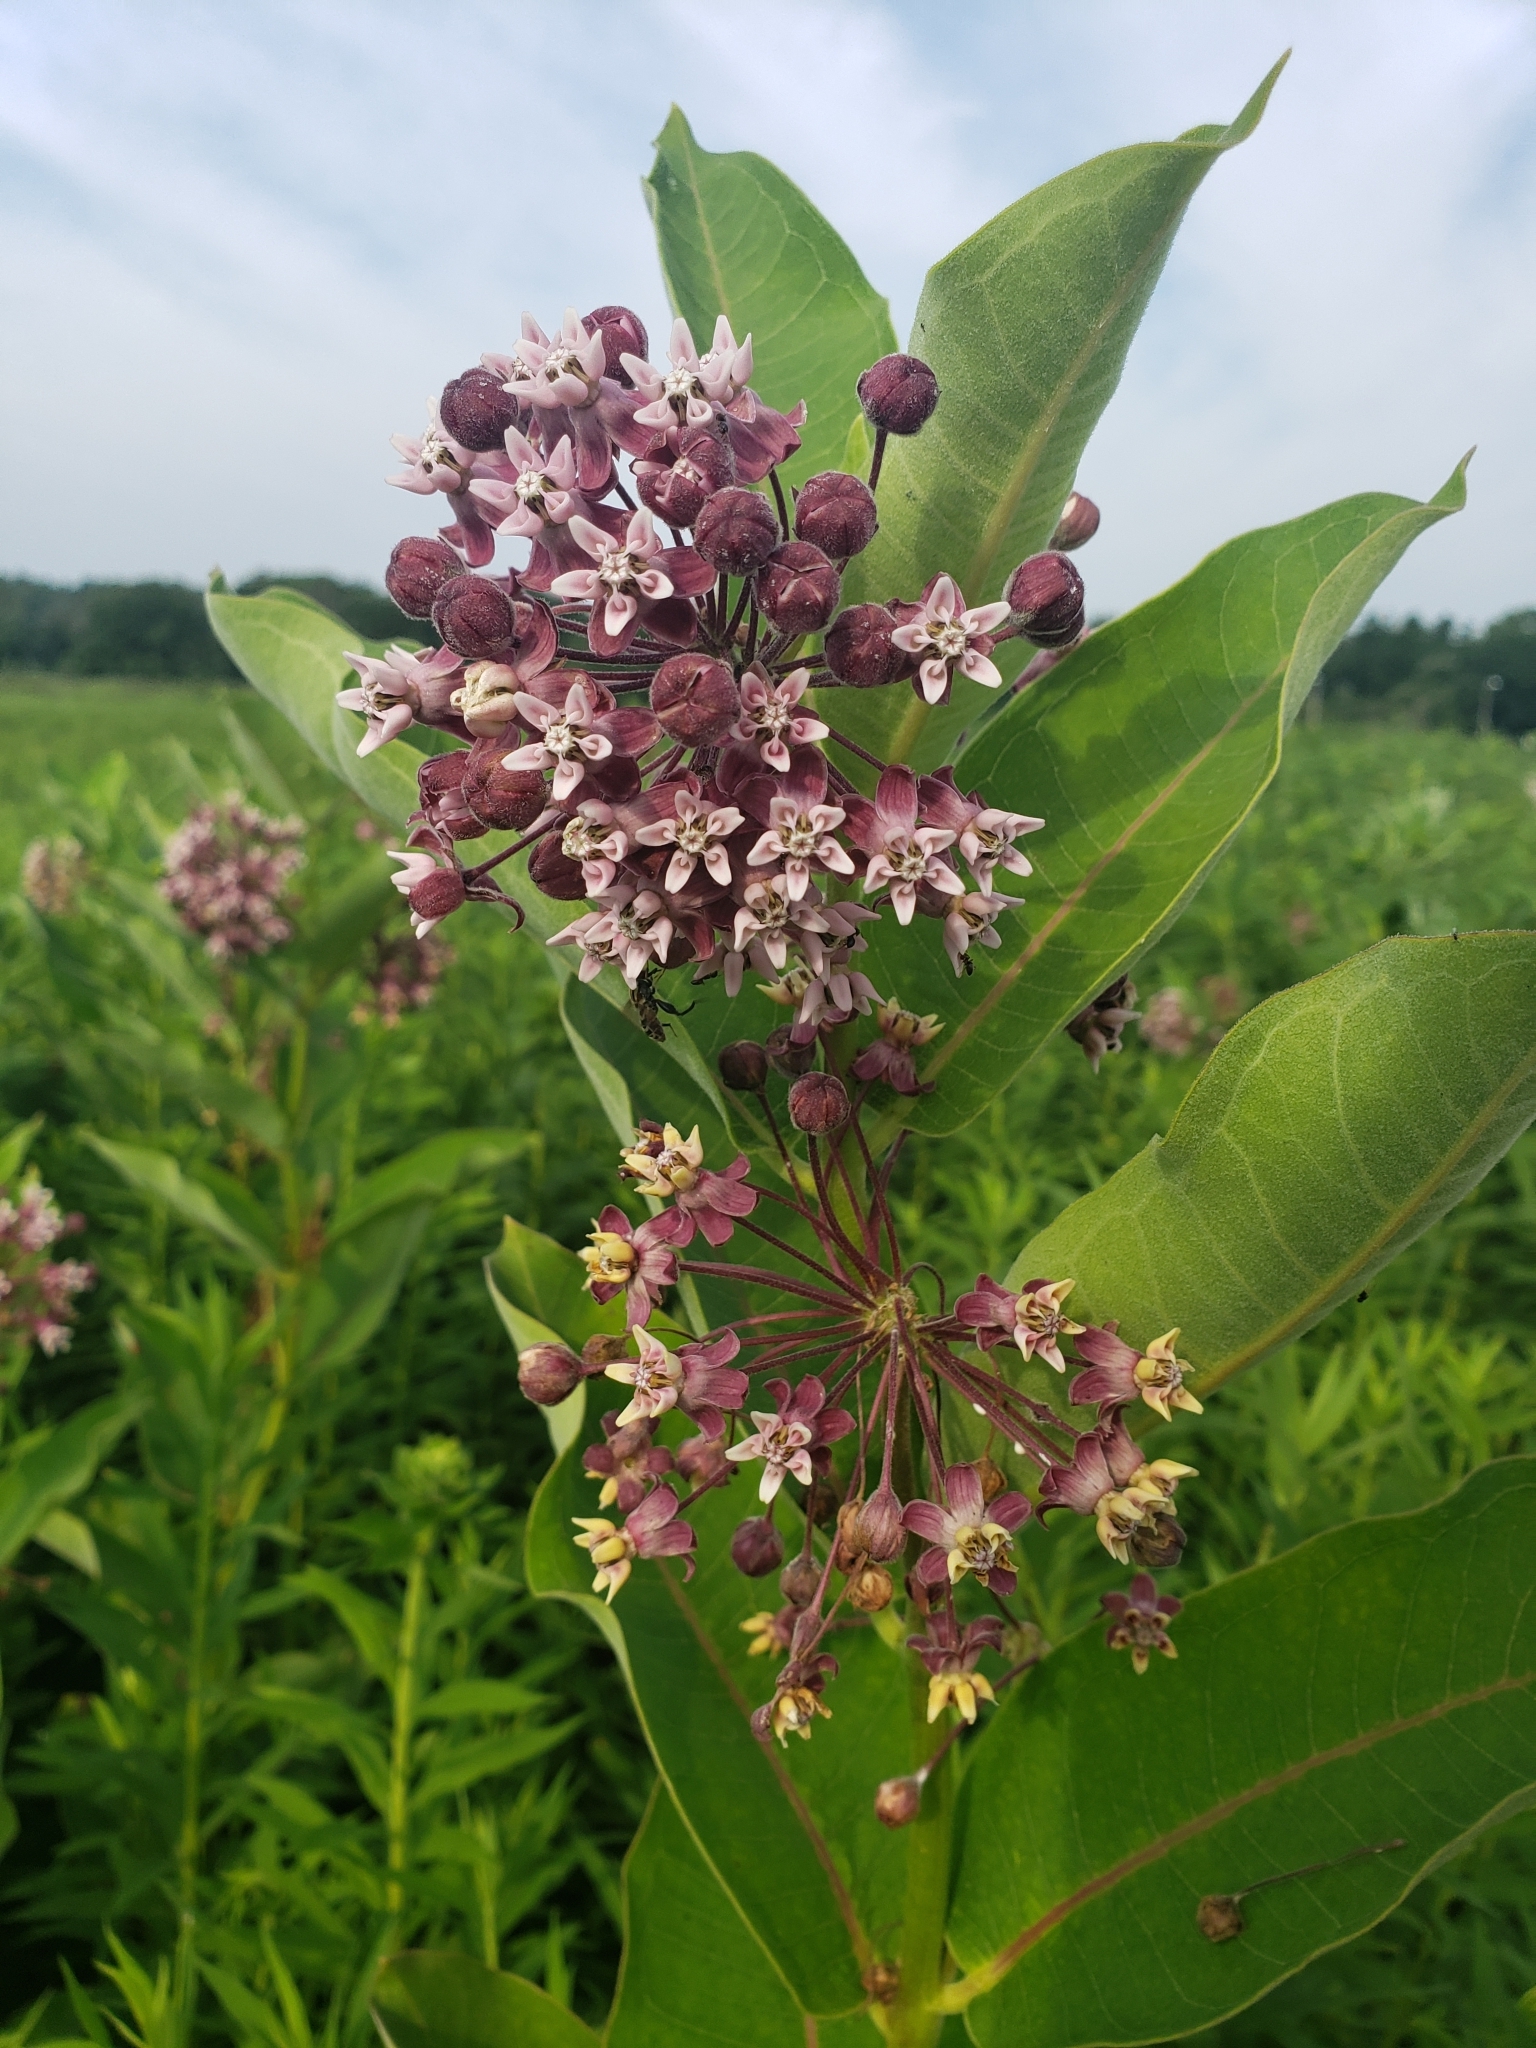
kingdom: Plantae
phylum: Tracheophyta
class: Magnoliopsida
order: Gentianales
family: Apocynaceae
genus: Asclepias
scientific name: Asclepias syriaca
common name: Common milkweed
